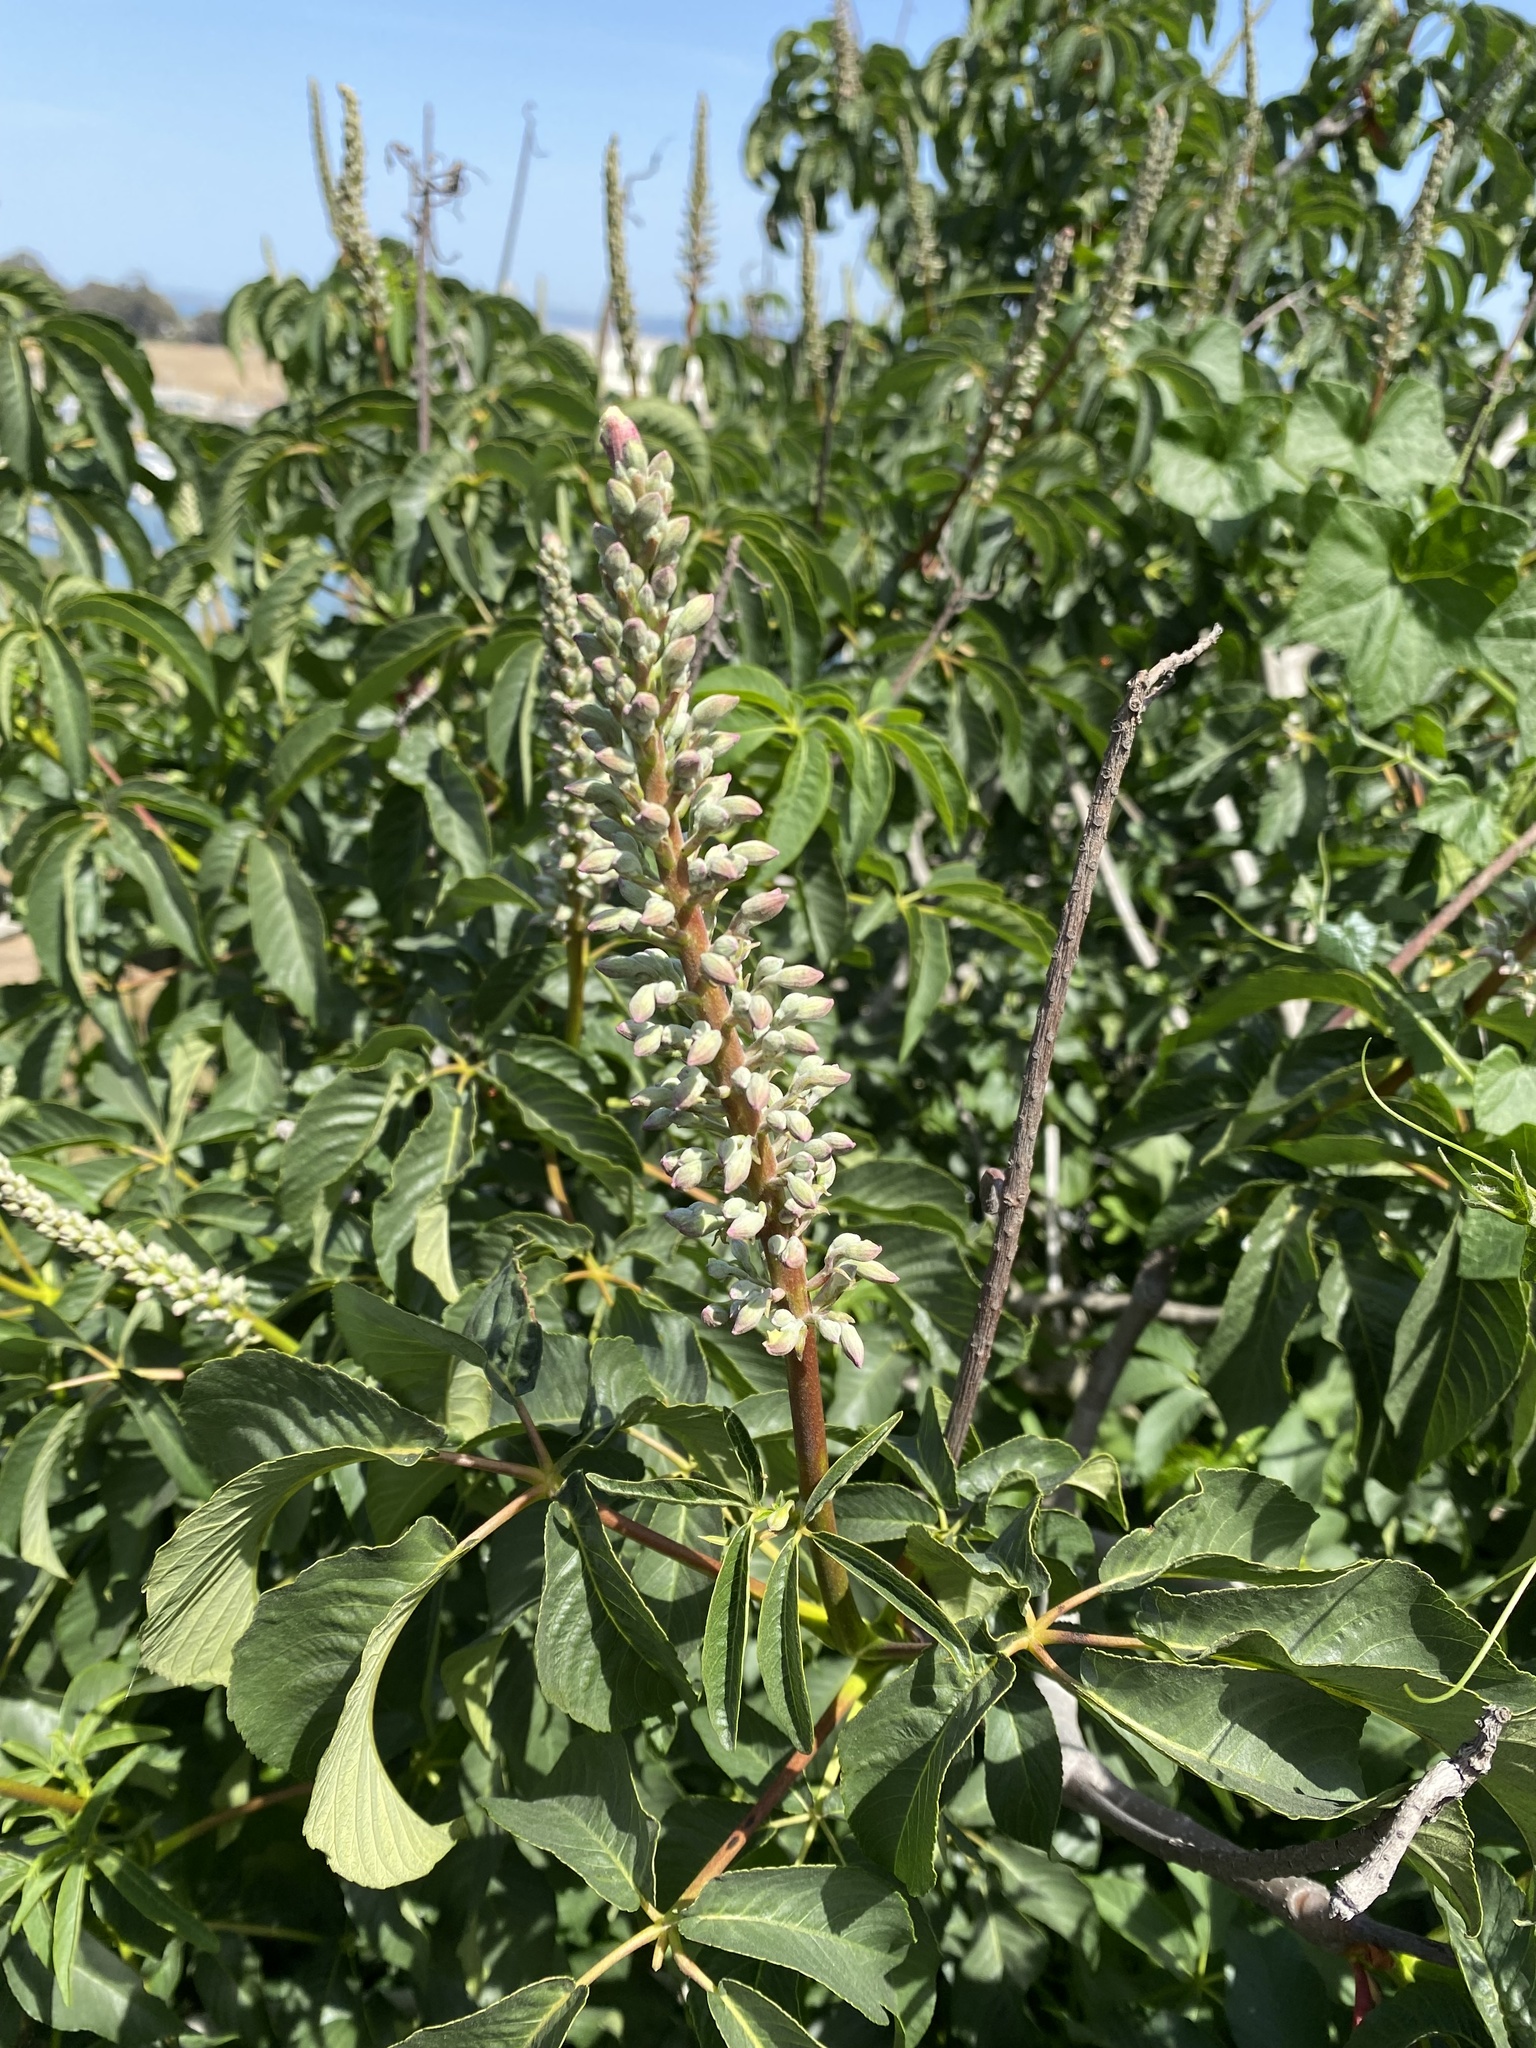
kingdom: Plantae
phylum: Tracheophyta
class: Magnoliopsida
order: Sapindales
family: Sapindaceae
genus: Aesculus
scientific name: Aesculus californica
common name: California buckeye
